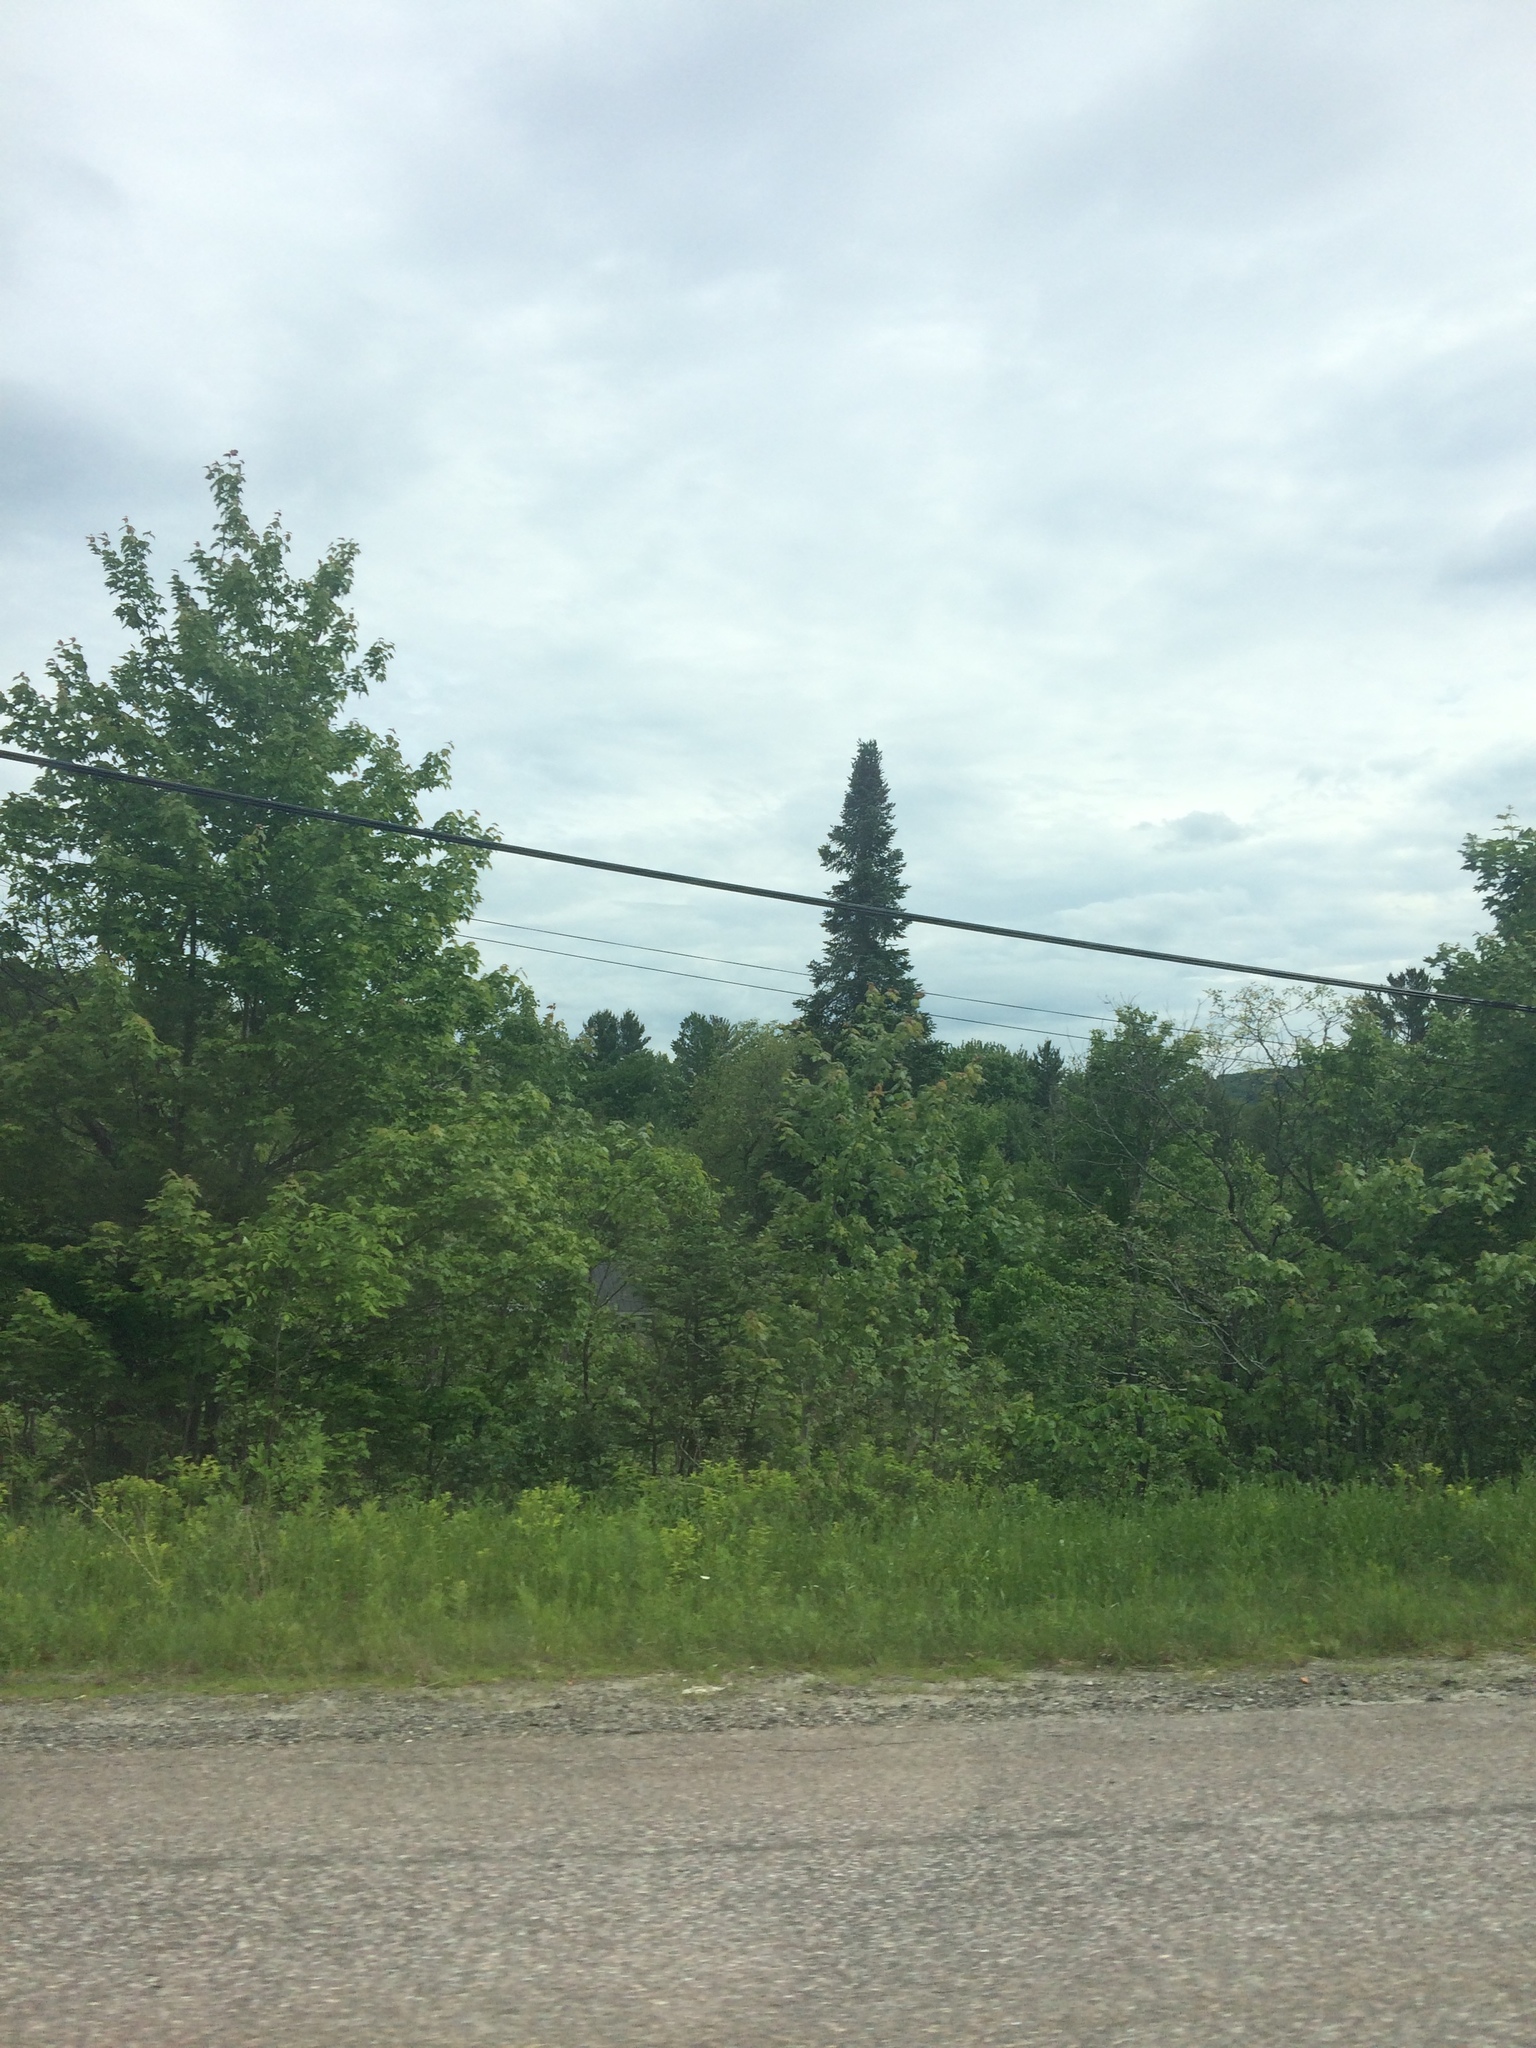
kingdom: Plantae
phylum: Tracheophyta
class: Pinopsida
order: Pinales
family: Pinaceae
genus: Abies
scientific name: Abies balsamea
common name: Balsam fir
